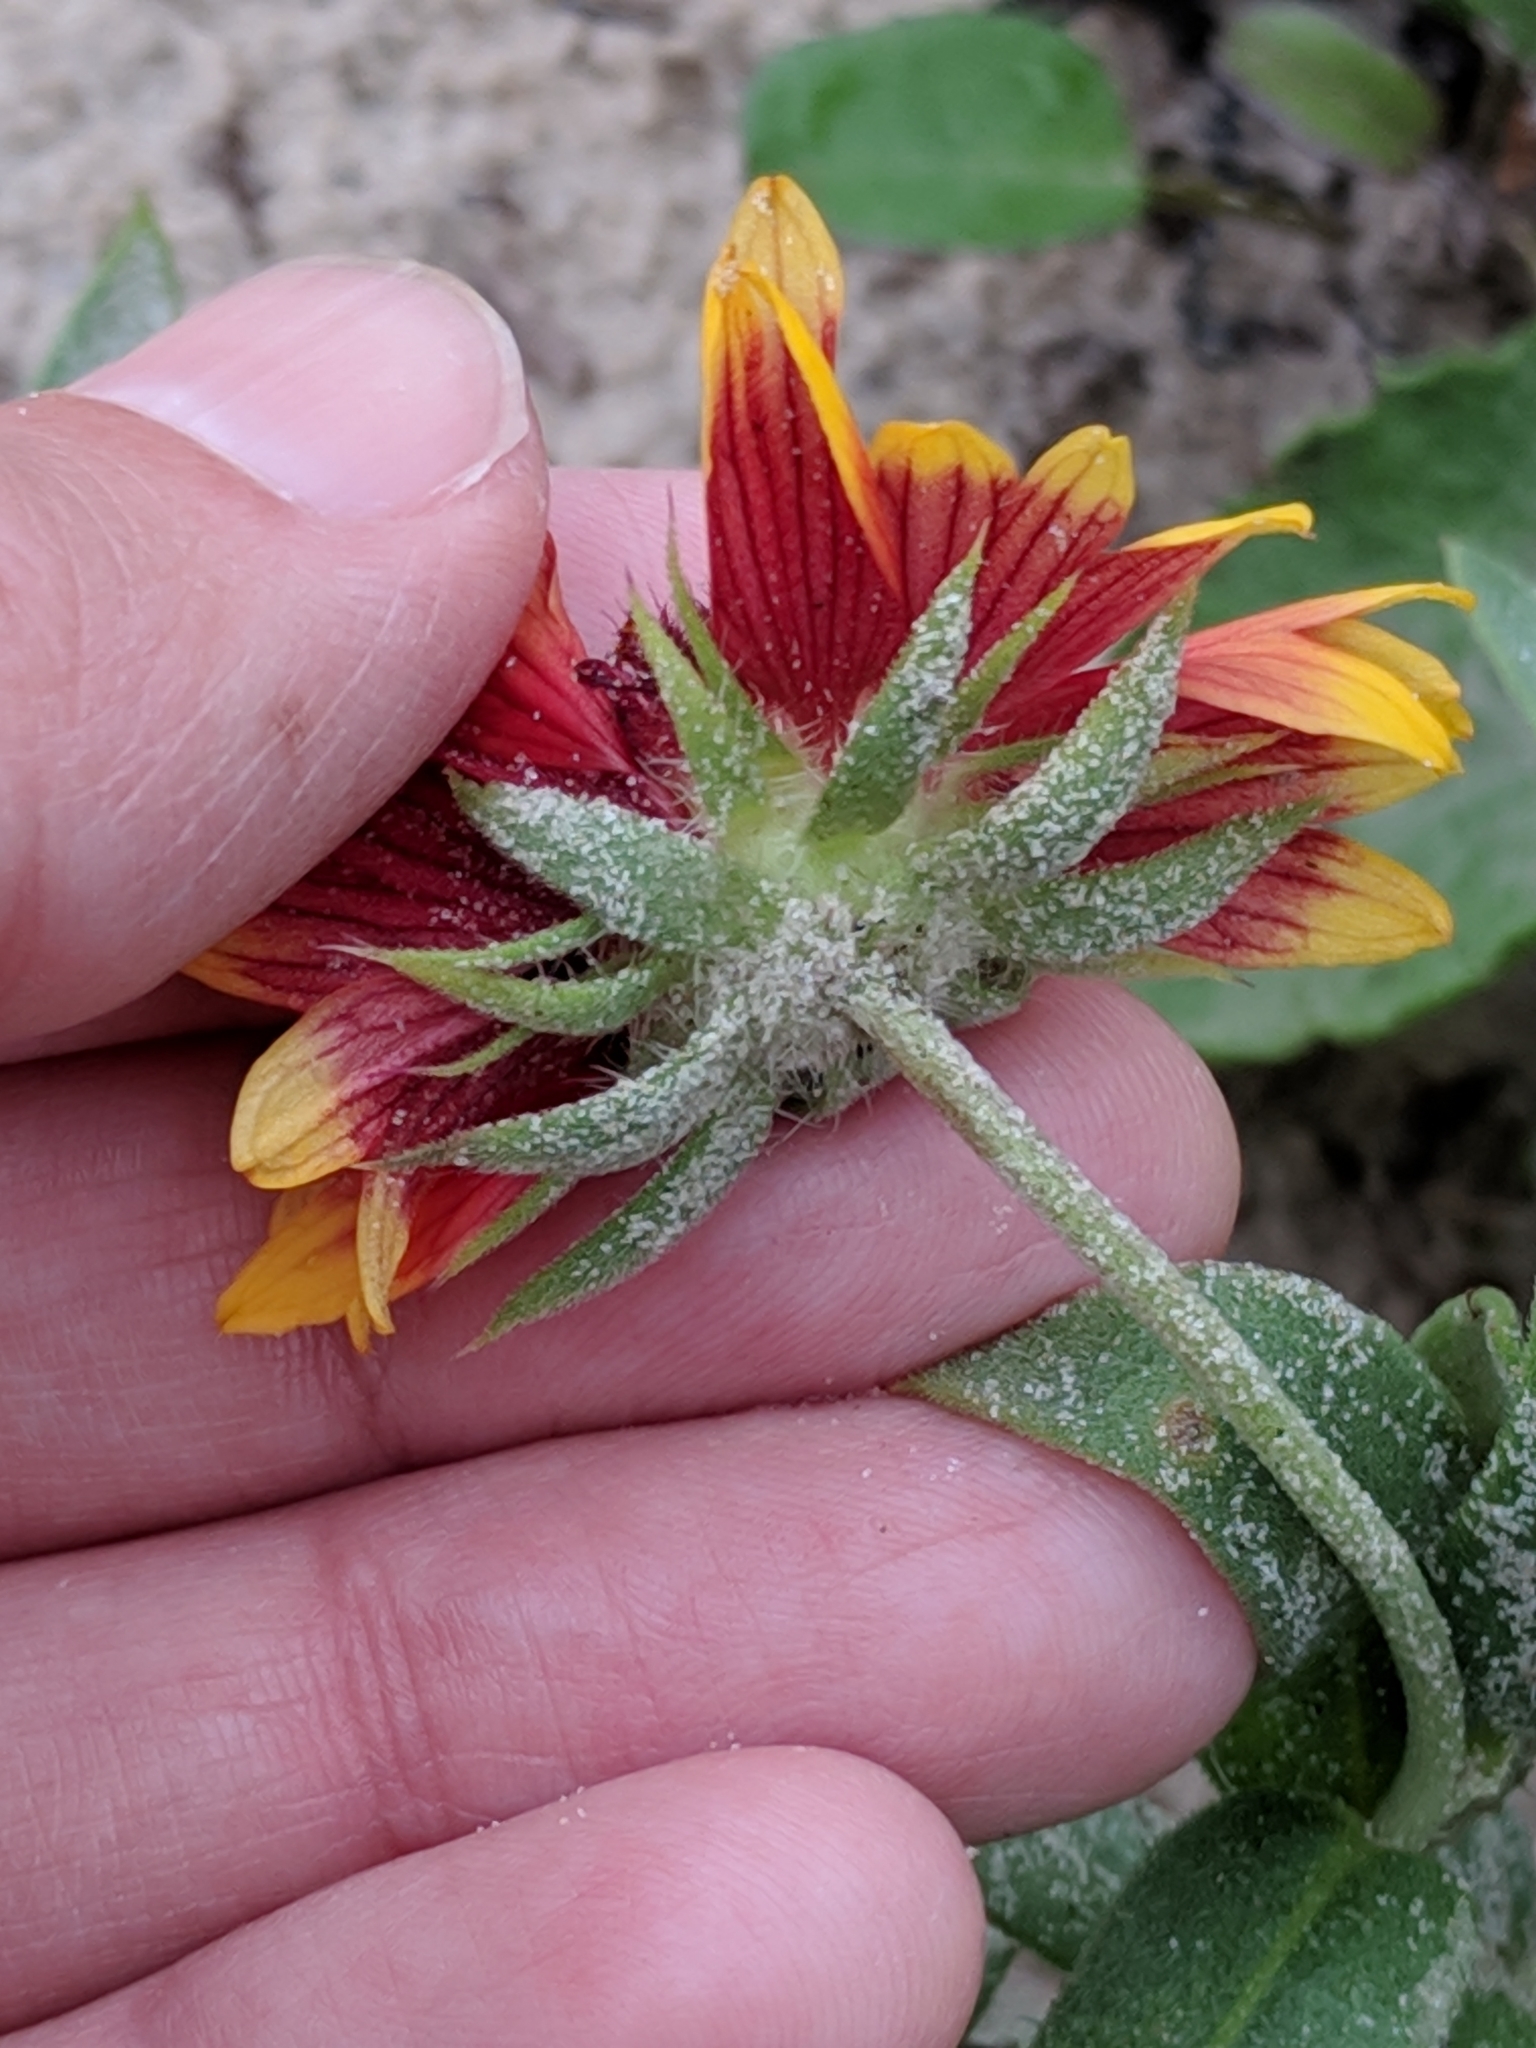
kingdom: Plantae
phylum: Tracheophyta
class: Magnoliopsida
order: Asterales
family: Asteraceae
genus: Gaillardia
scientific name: Gaillardia pulchella
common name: Firewheel
